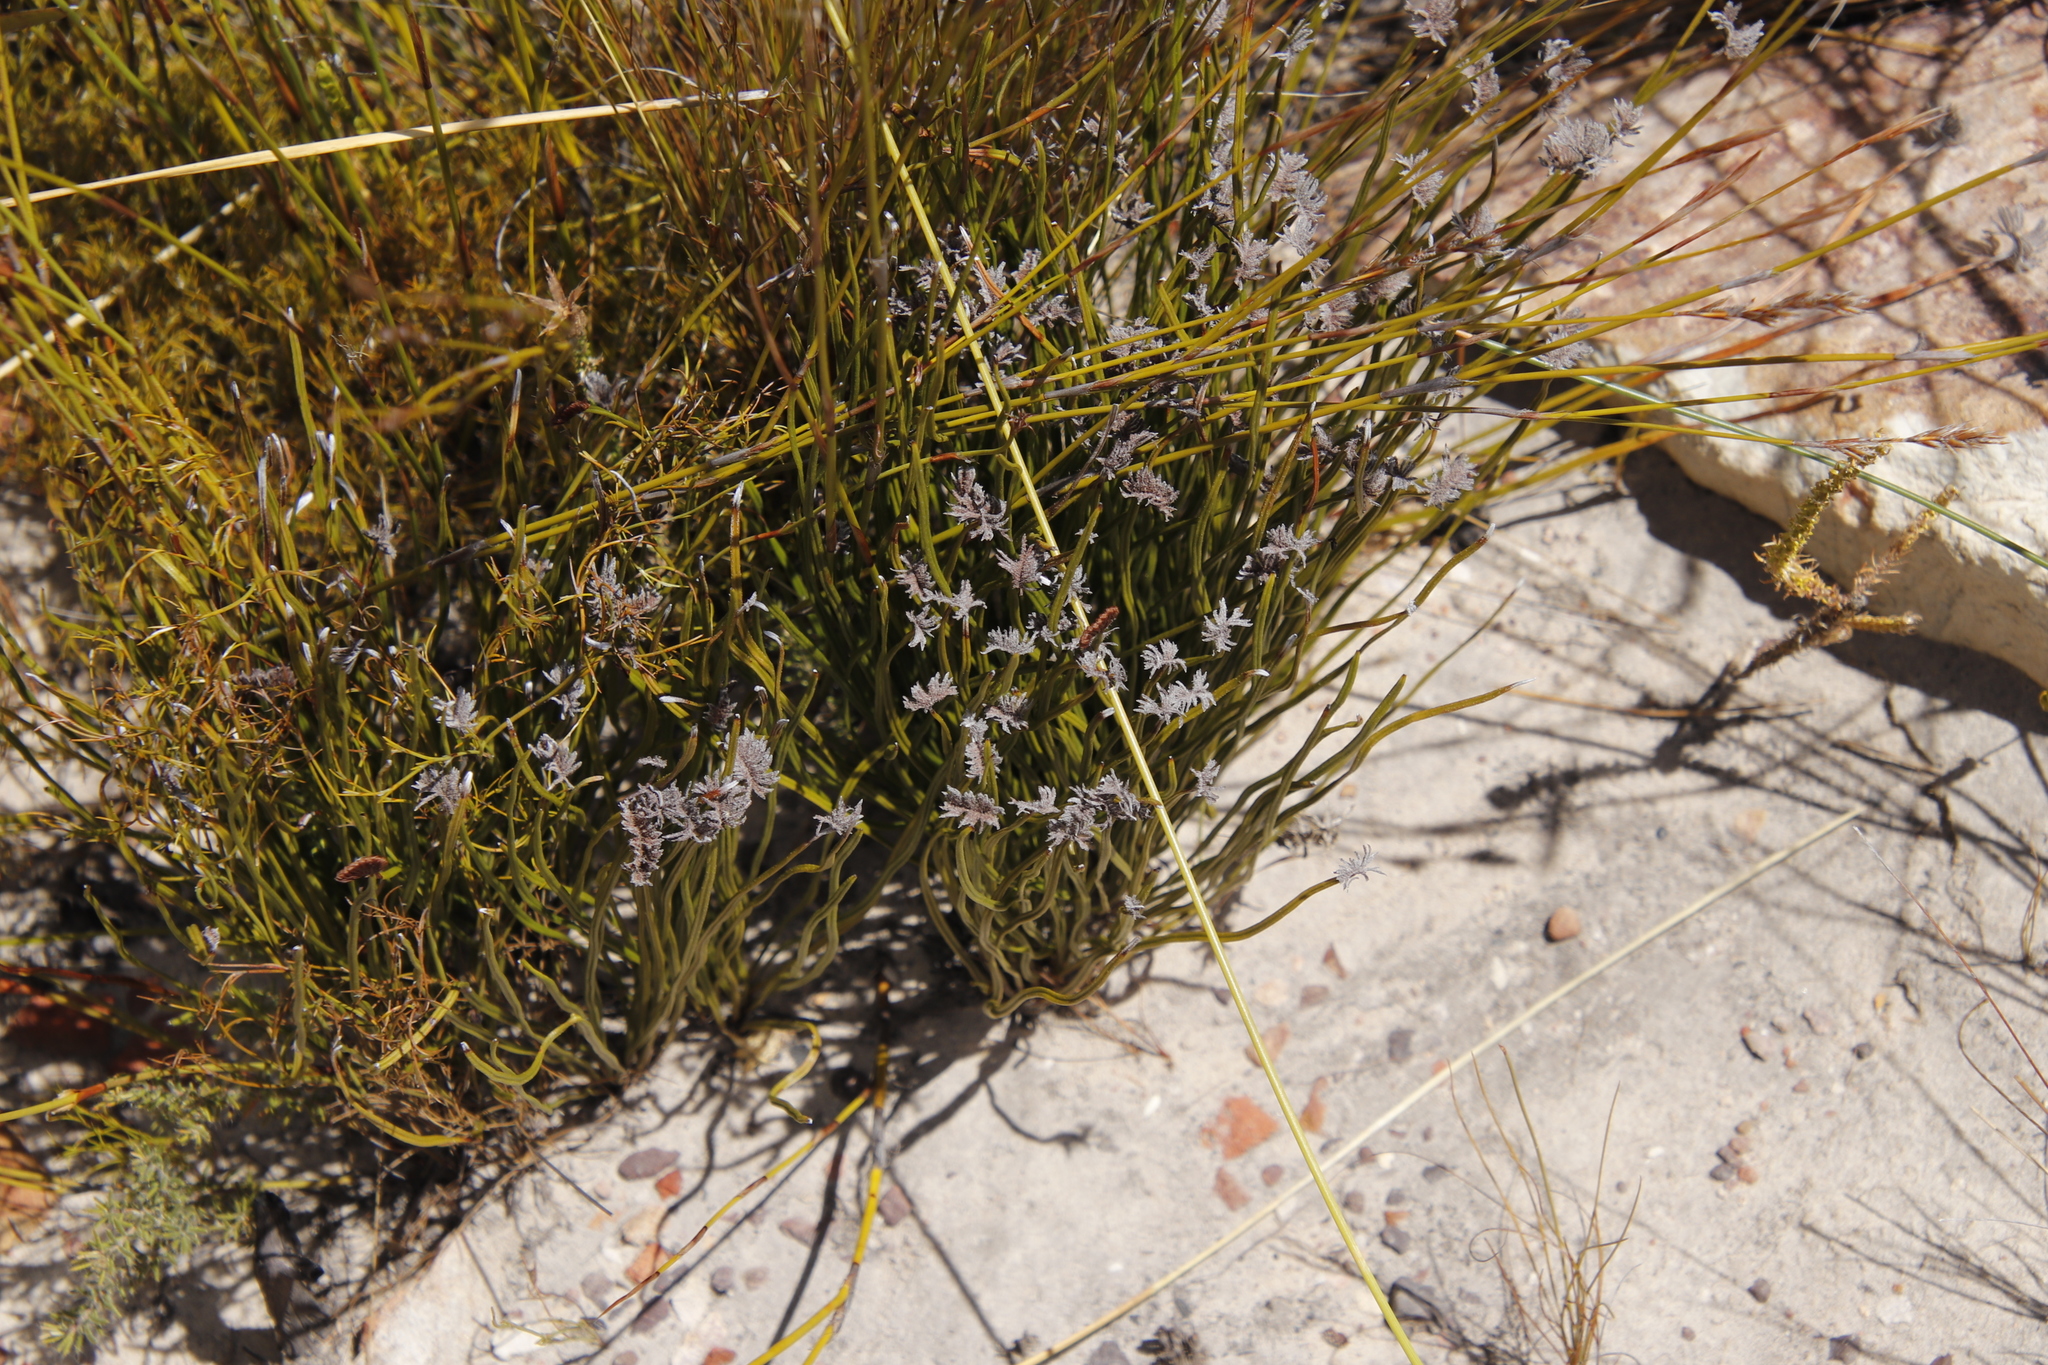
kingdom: Plantae
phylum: Tracheophyta
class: Polypodiopsida
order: Schizaeales
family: Schizaeaceae
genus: Schizaea
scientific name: Schizaea pectinata
